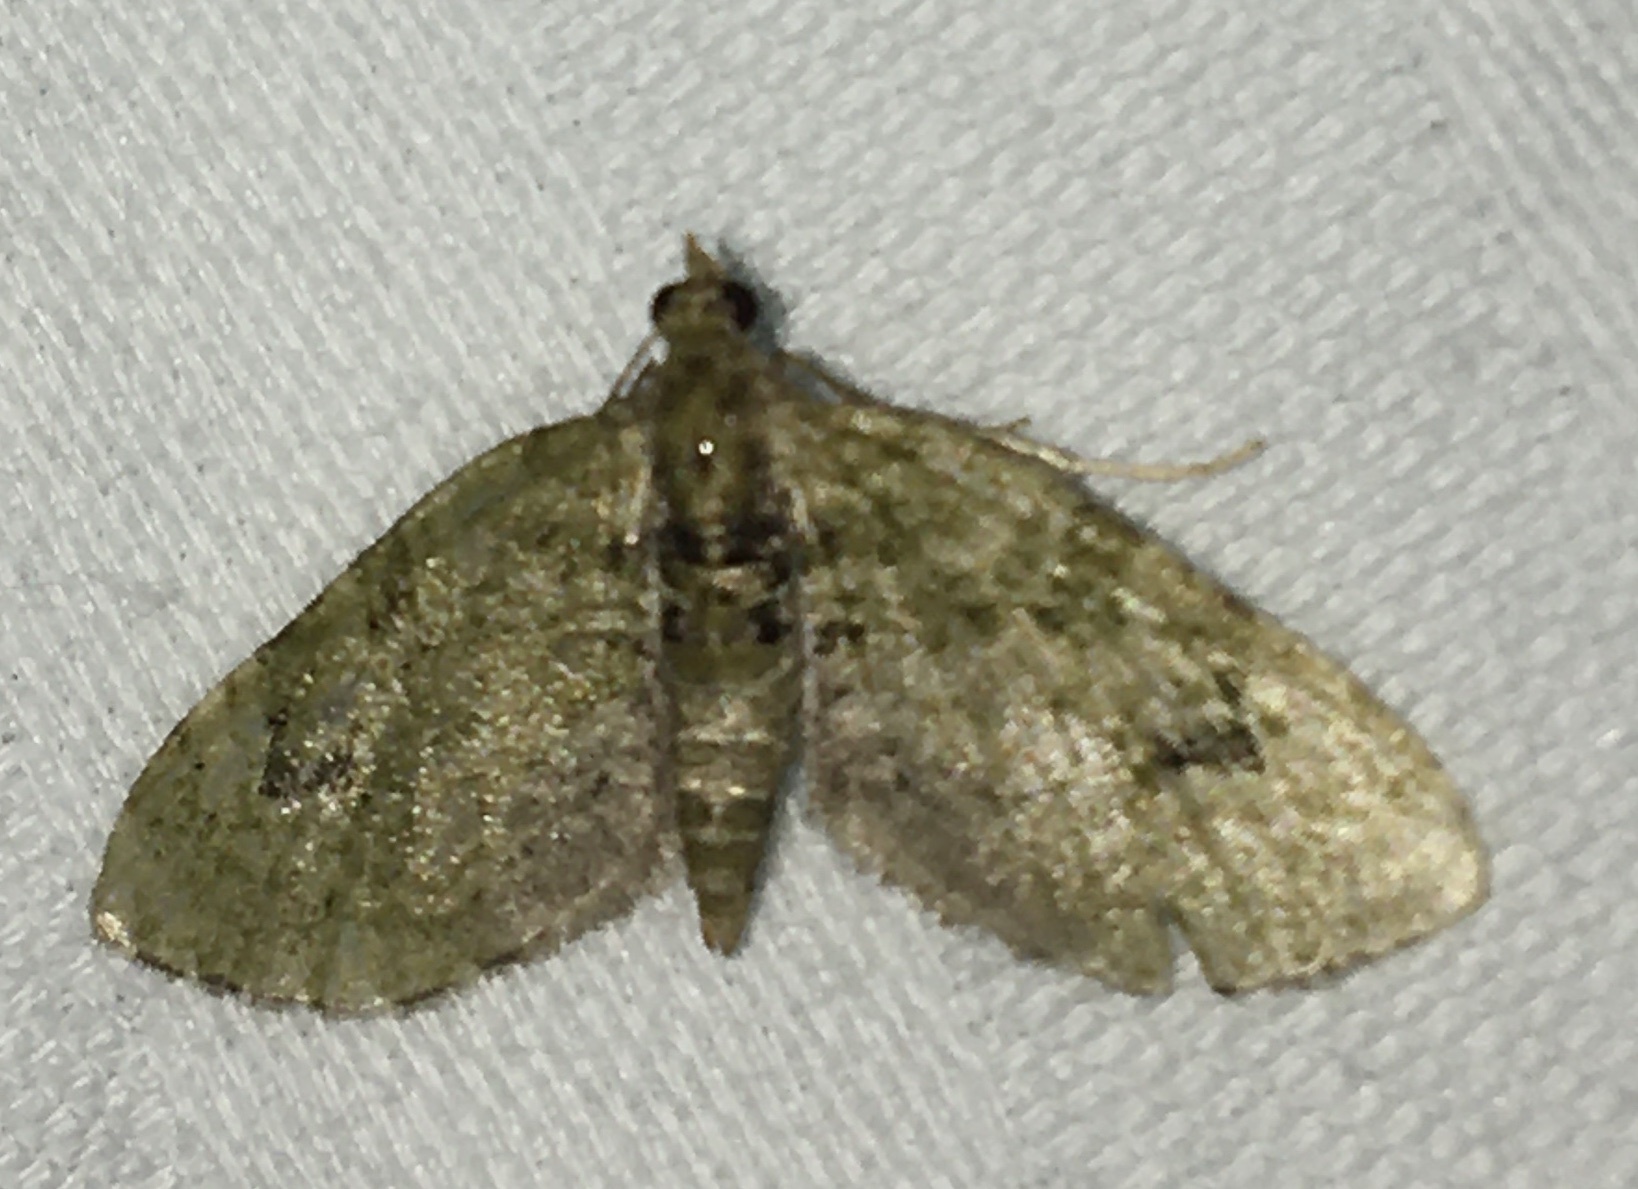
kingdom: Animalia
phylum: Arthropoda
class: Insecta
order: Lepidoptera
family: Geometridae
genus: Chloroclystis
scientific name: Chloroclystis v-ata
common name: V-pug
